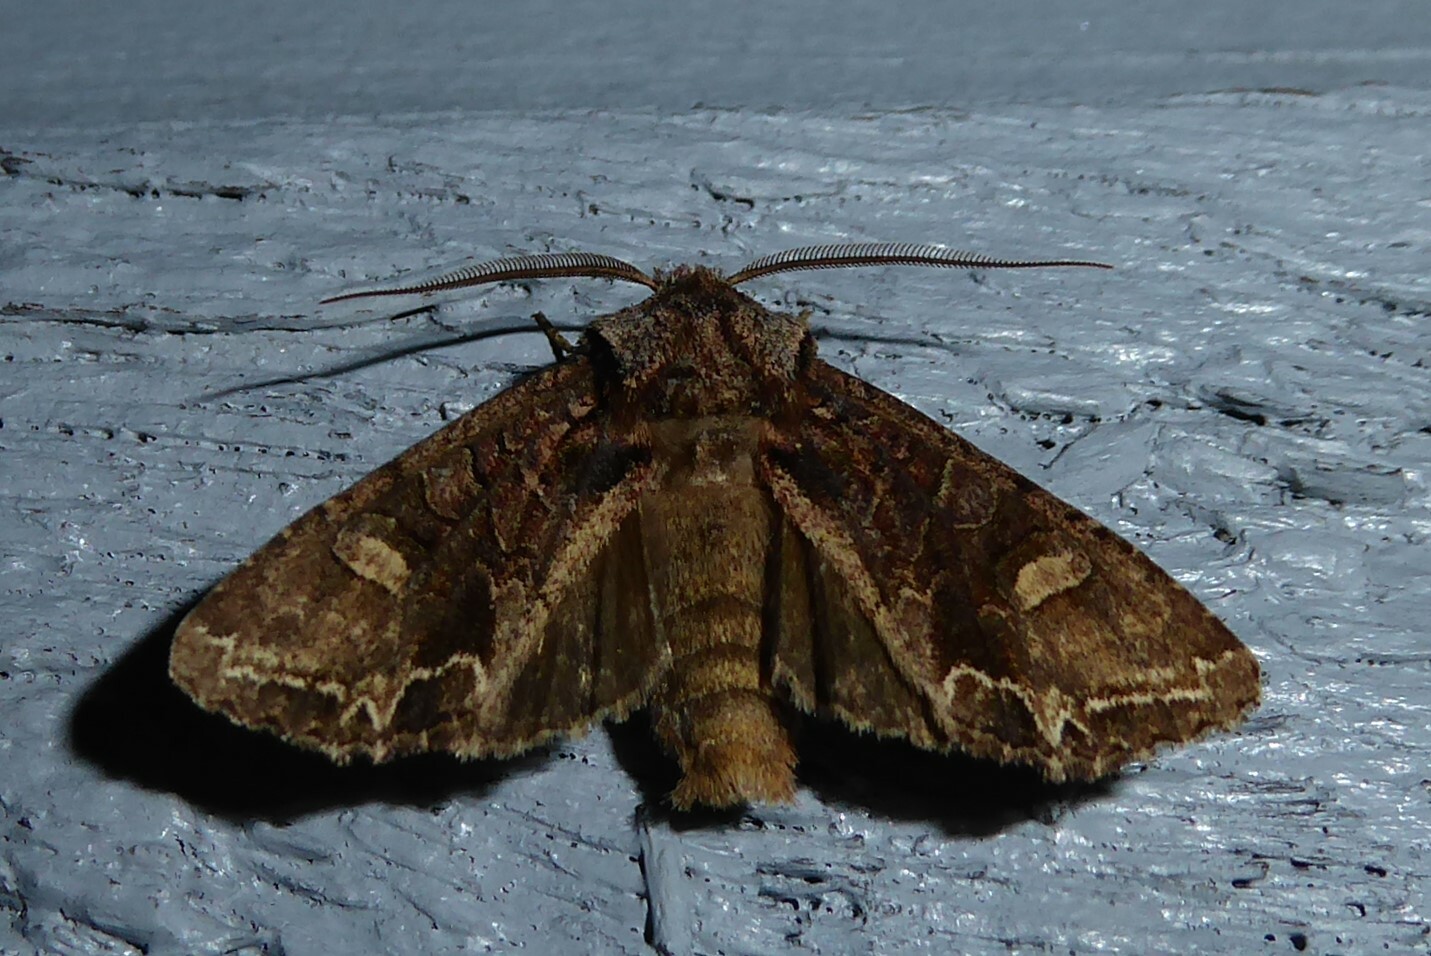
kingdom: Animalia
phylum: Arthropoda
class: Insecta
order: Lepidoptera
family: Noctuidae
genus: Ichneutica
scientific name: Ichneutica skelloni
